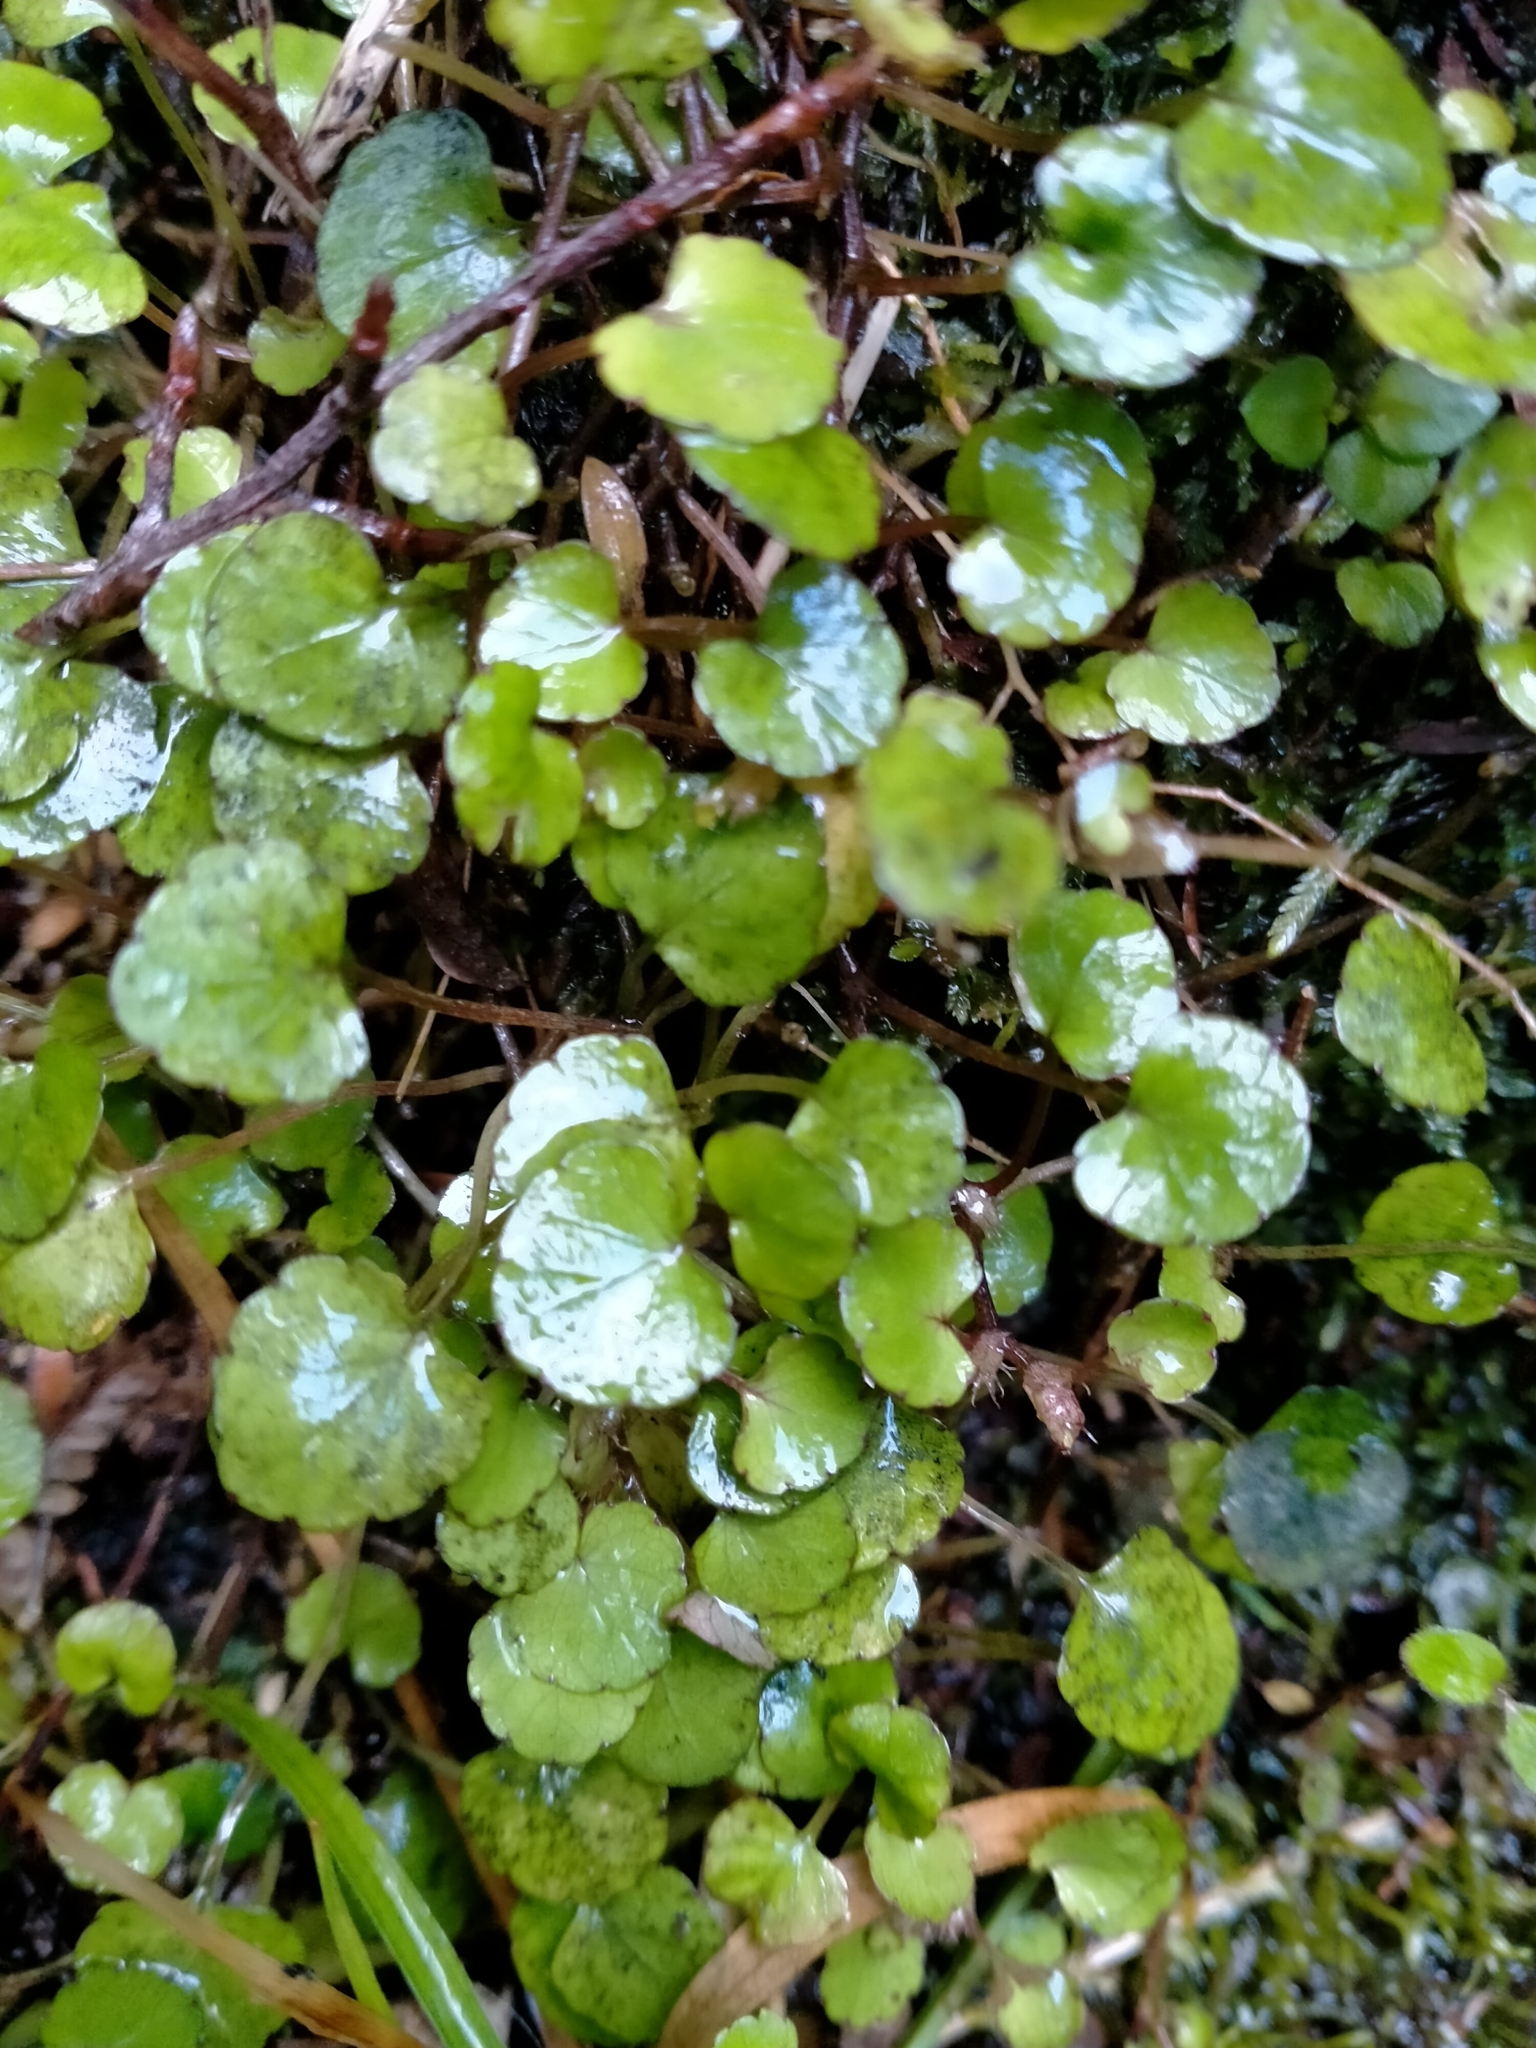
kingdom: Plantae
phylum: Tracheophyta
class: Magnoliopsida
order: Malpighiales
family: Violaceae
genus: Viola
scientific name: Viola filicaulis
